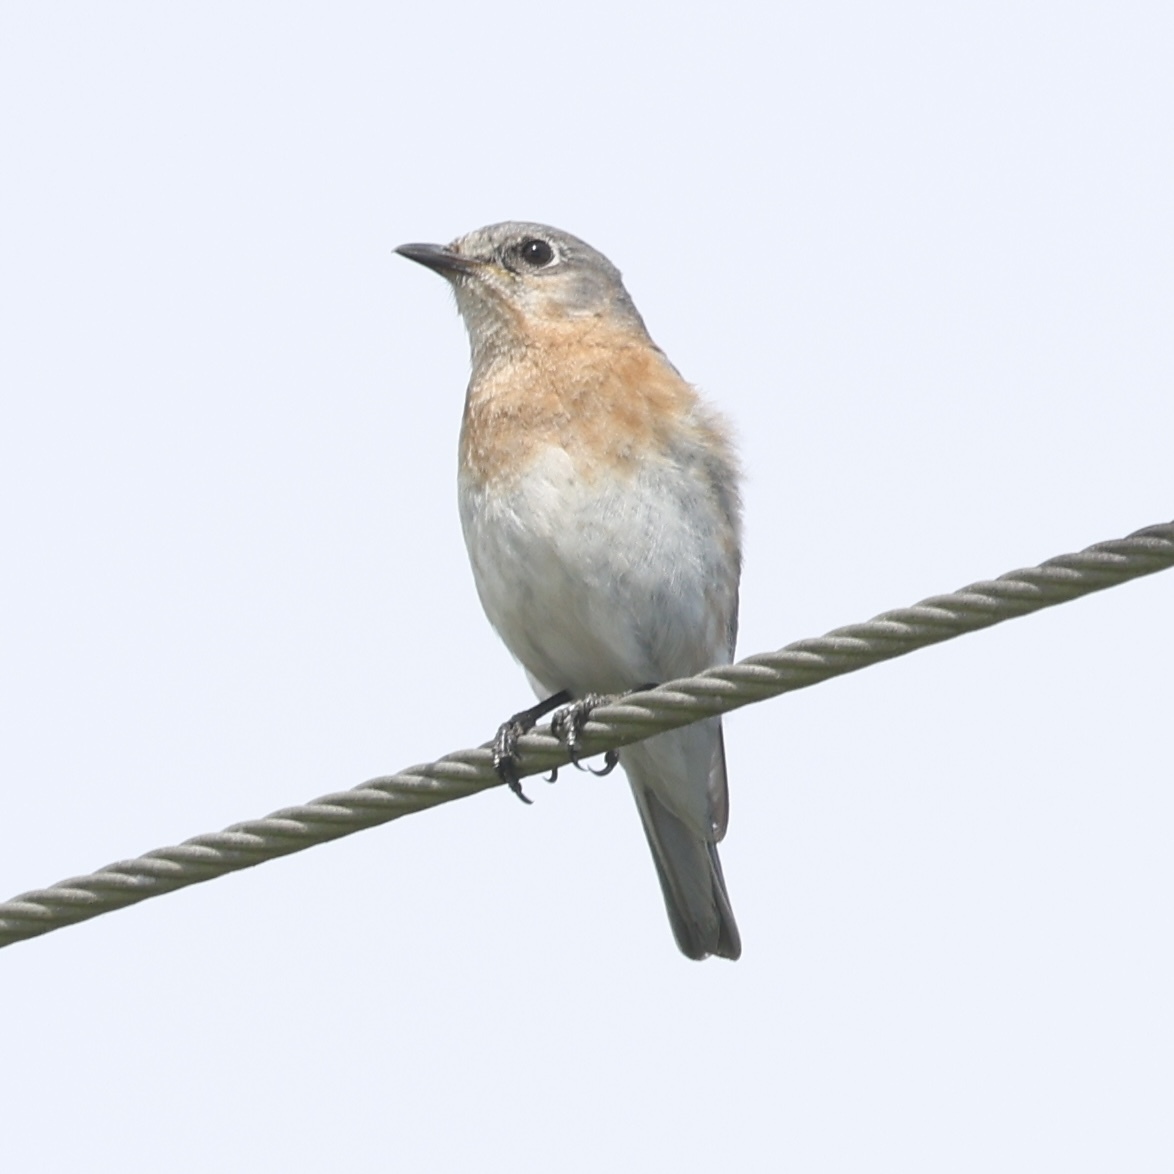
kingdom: Animalia
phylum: Chordata
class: Aves
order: Passeriformes
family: Turdidae
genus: Sialia
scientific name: Sialia sialis
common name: Eastern bluebird
